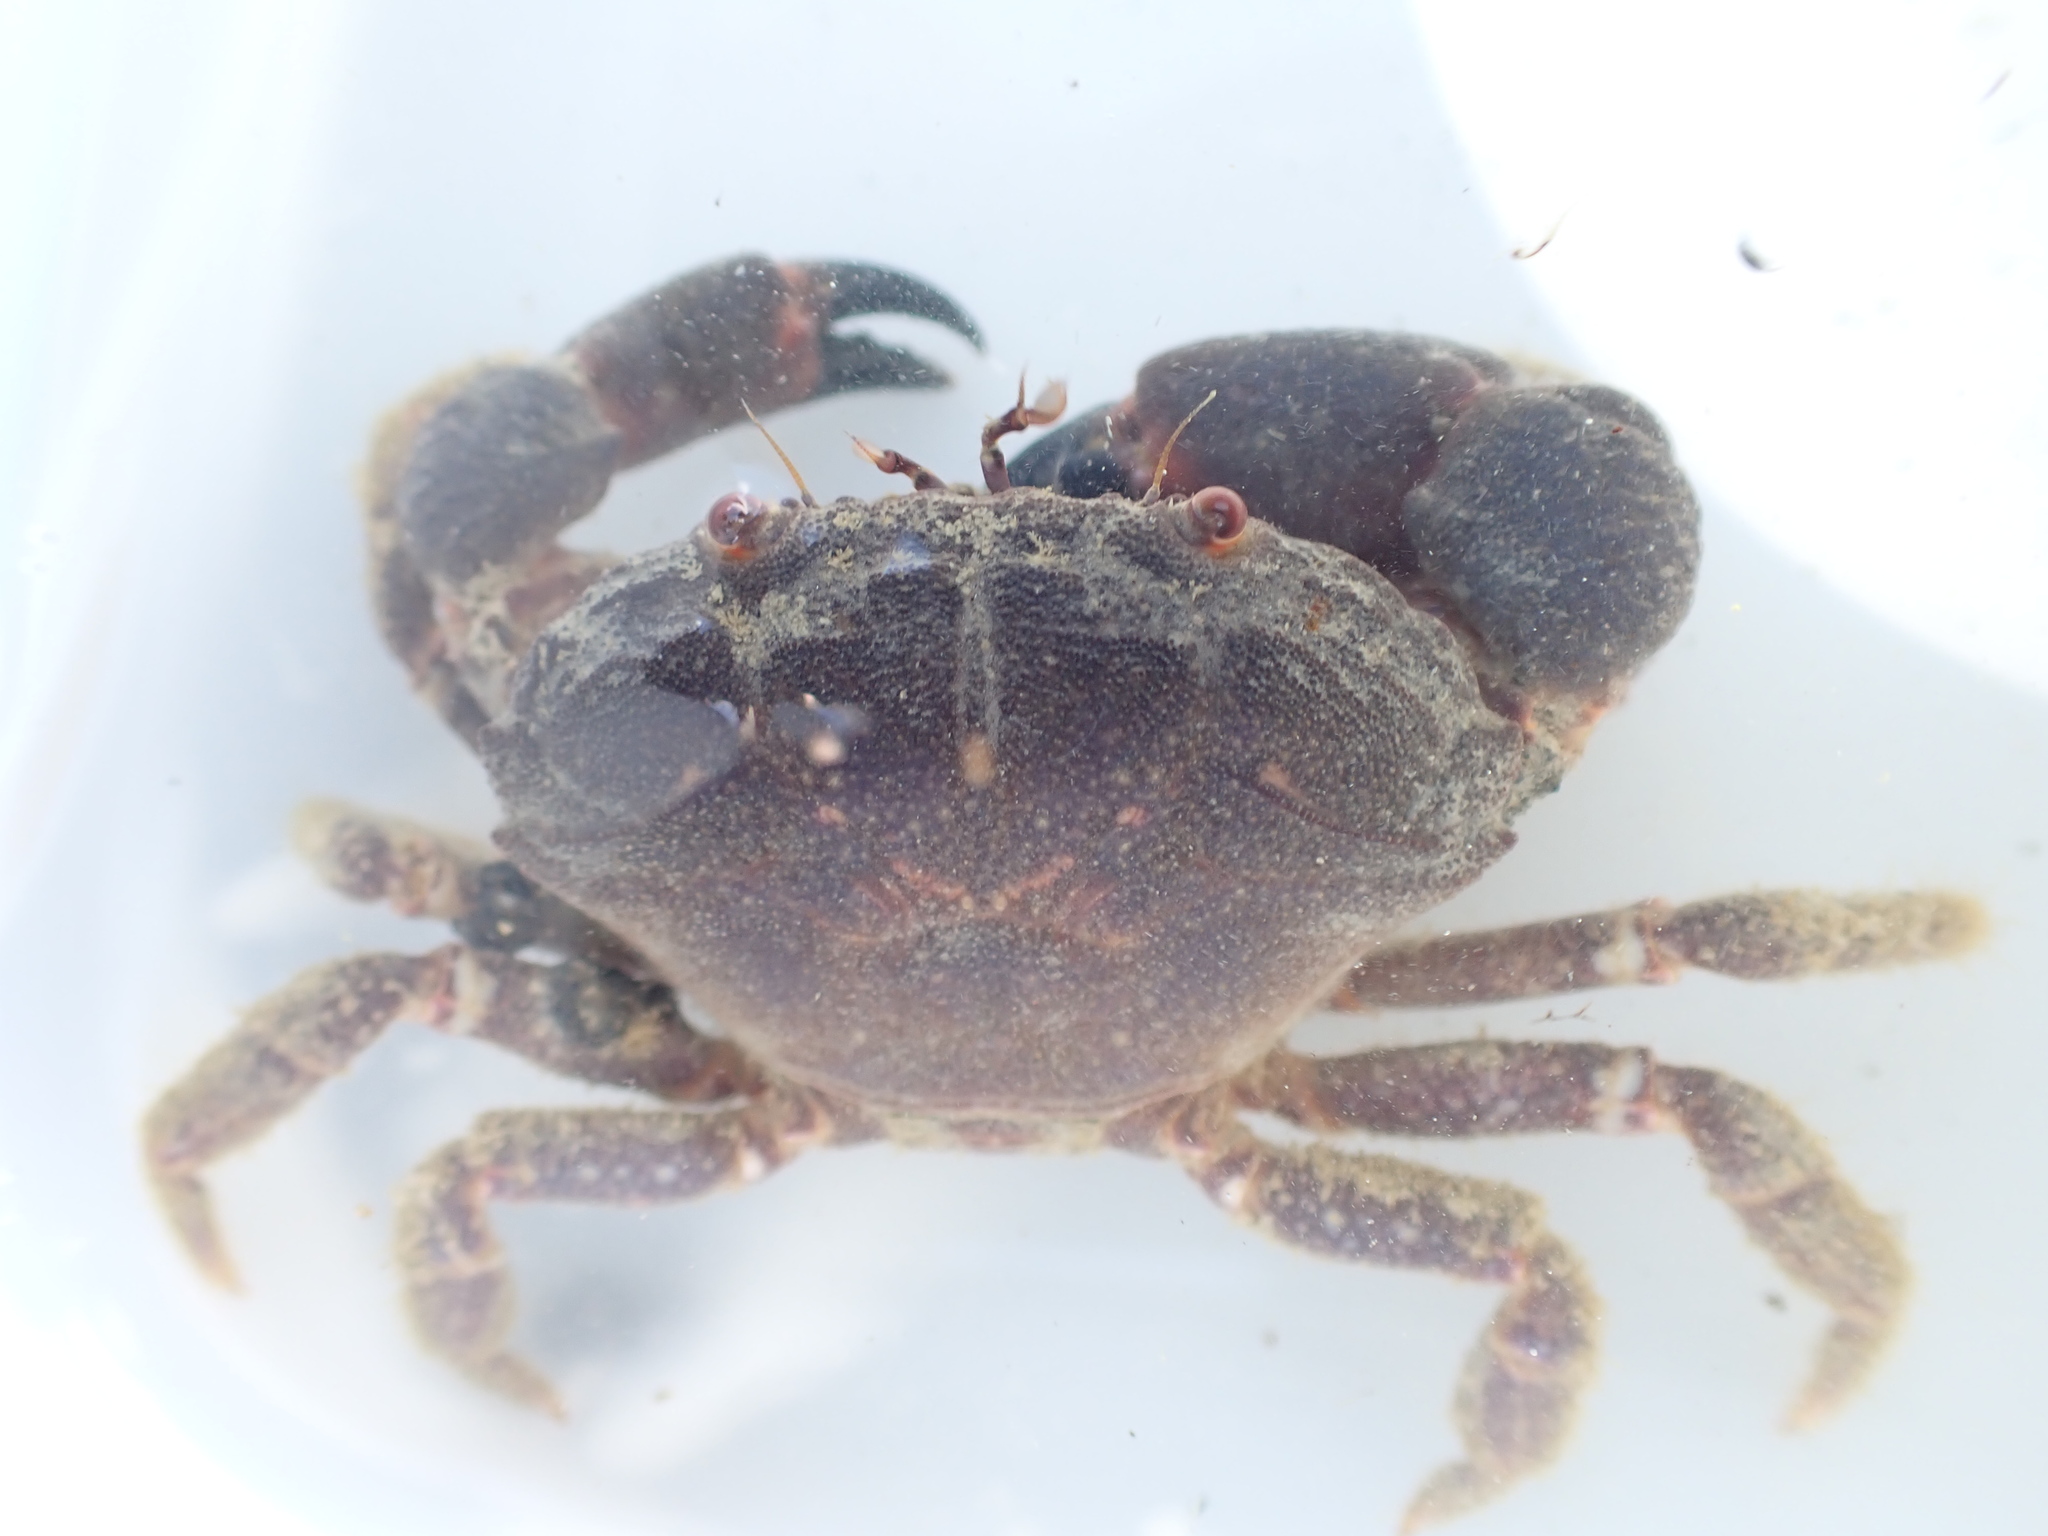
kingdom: Animalia
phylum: Arthropoda
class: Malacostraca
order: Decapoda
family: Oziidae
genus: Ozius
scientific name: Ozius deplanatus
